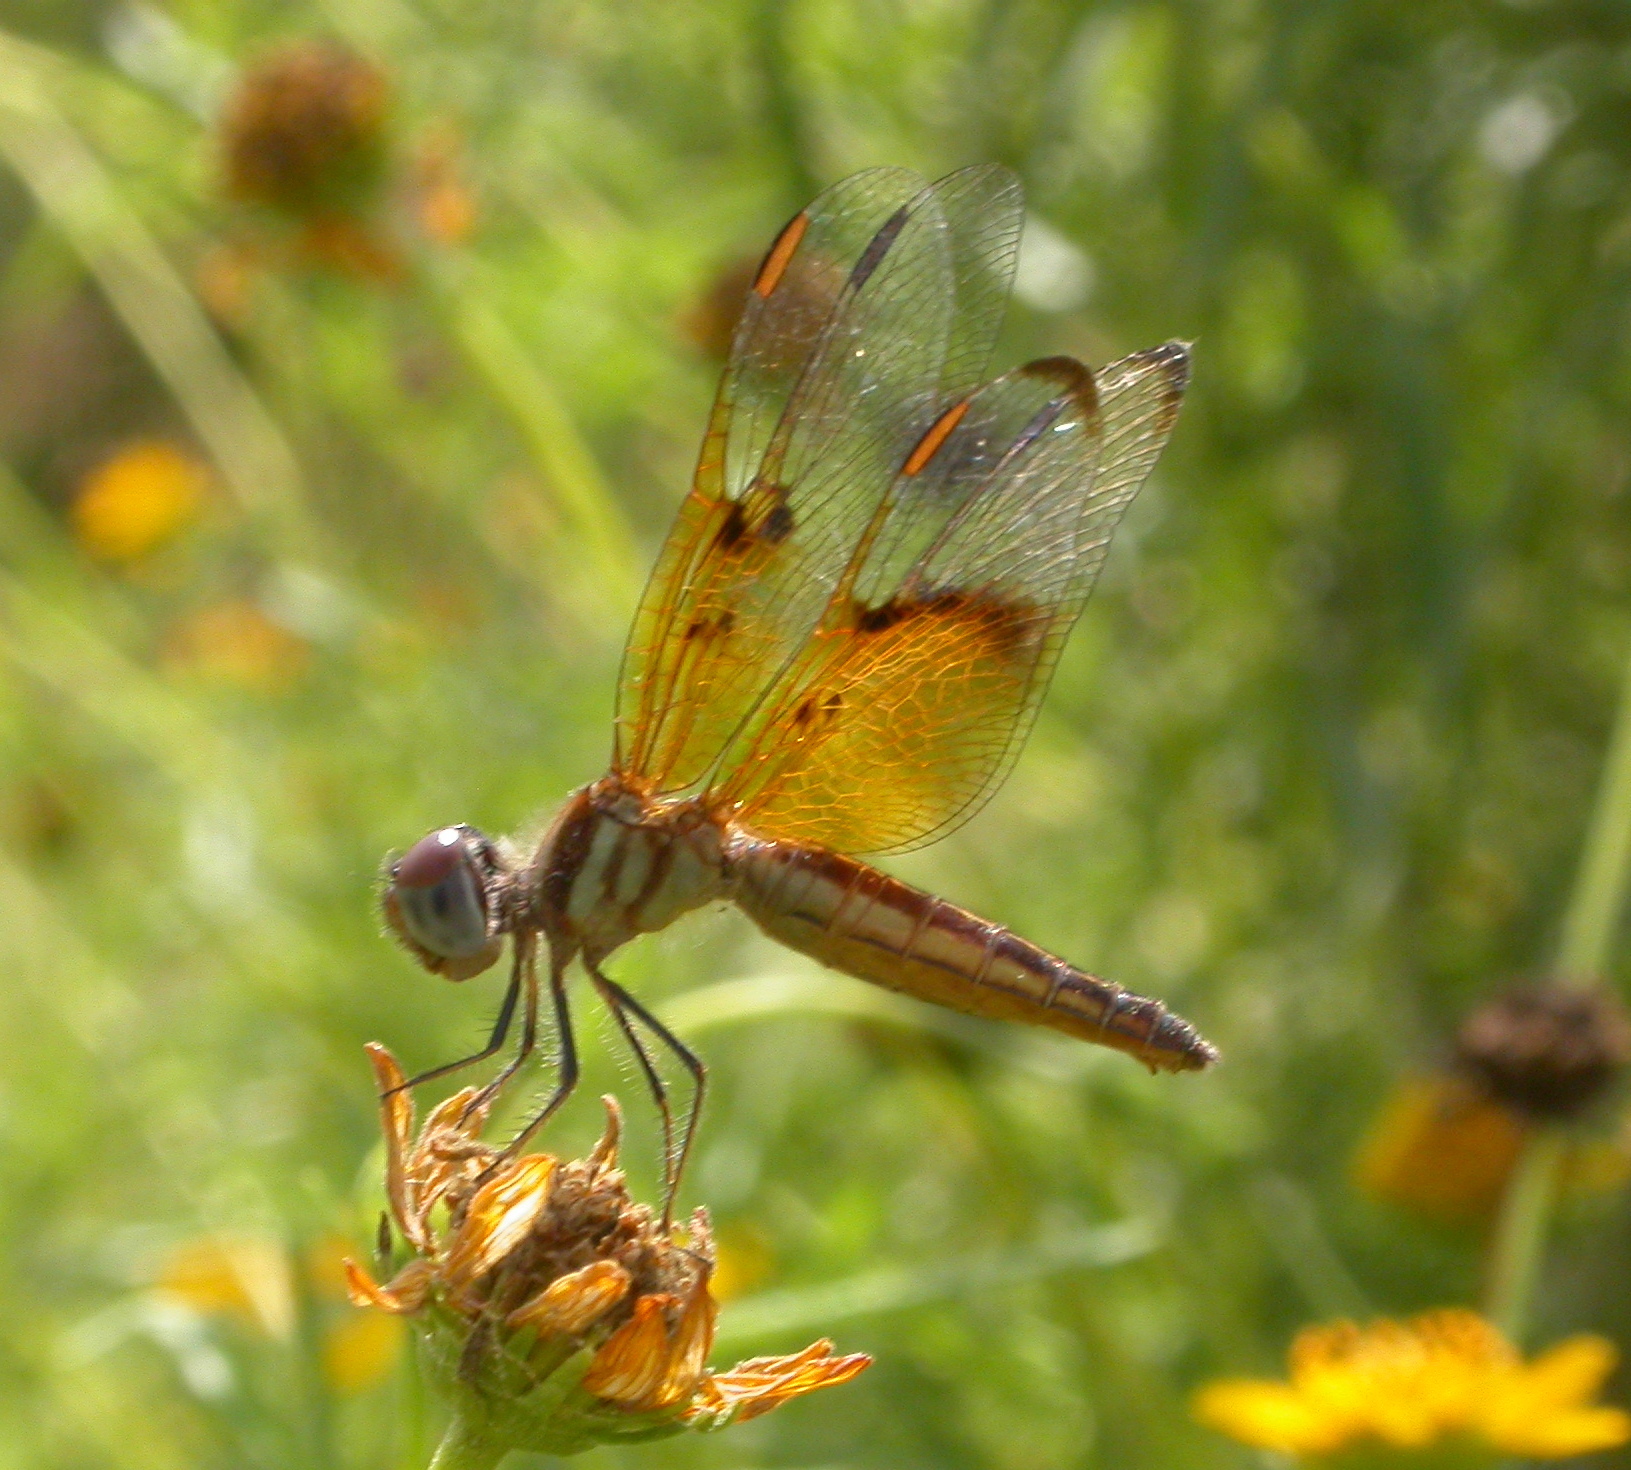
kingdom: Animalia
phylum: Arthropoda
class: Insecta
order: Odonata
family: Libellulidae
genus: Perithemis
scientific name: Perithemis domitia
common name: Slough amberwing
